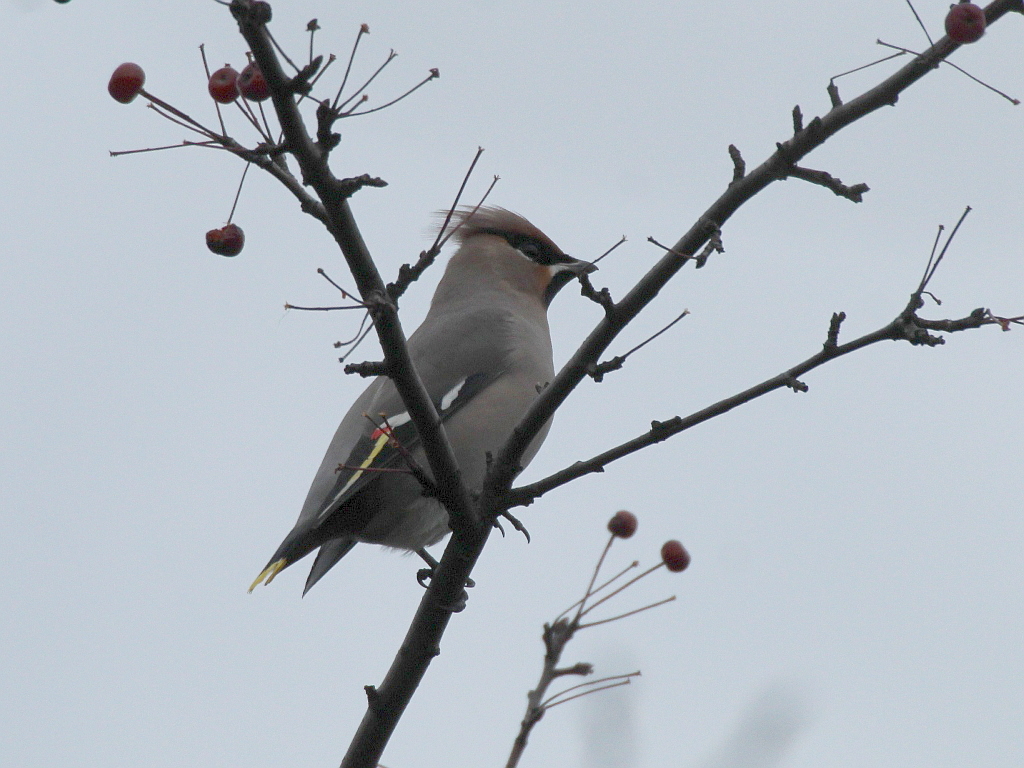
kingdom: Animalia
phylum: Chordata
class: Aves
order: Passeriformes
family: Bombycillidae
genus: Bombycilla
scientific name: Bombycilla garrulus
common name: Bohemian waxwing
